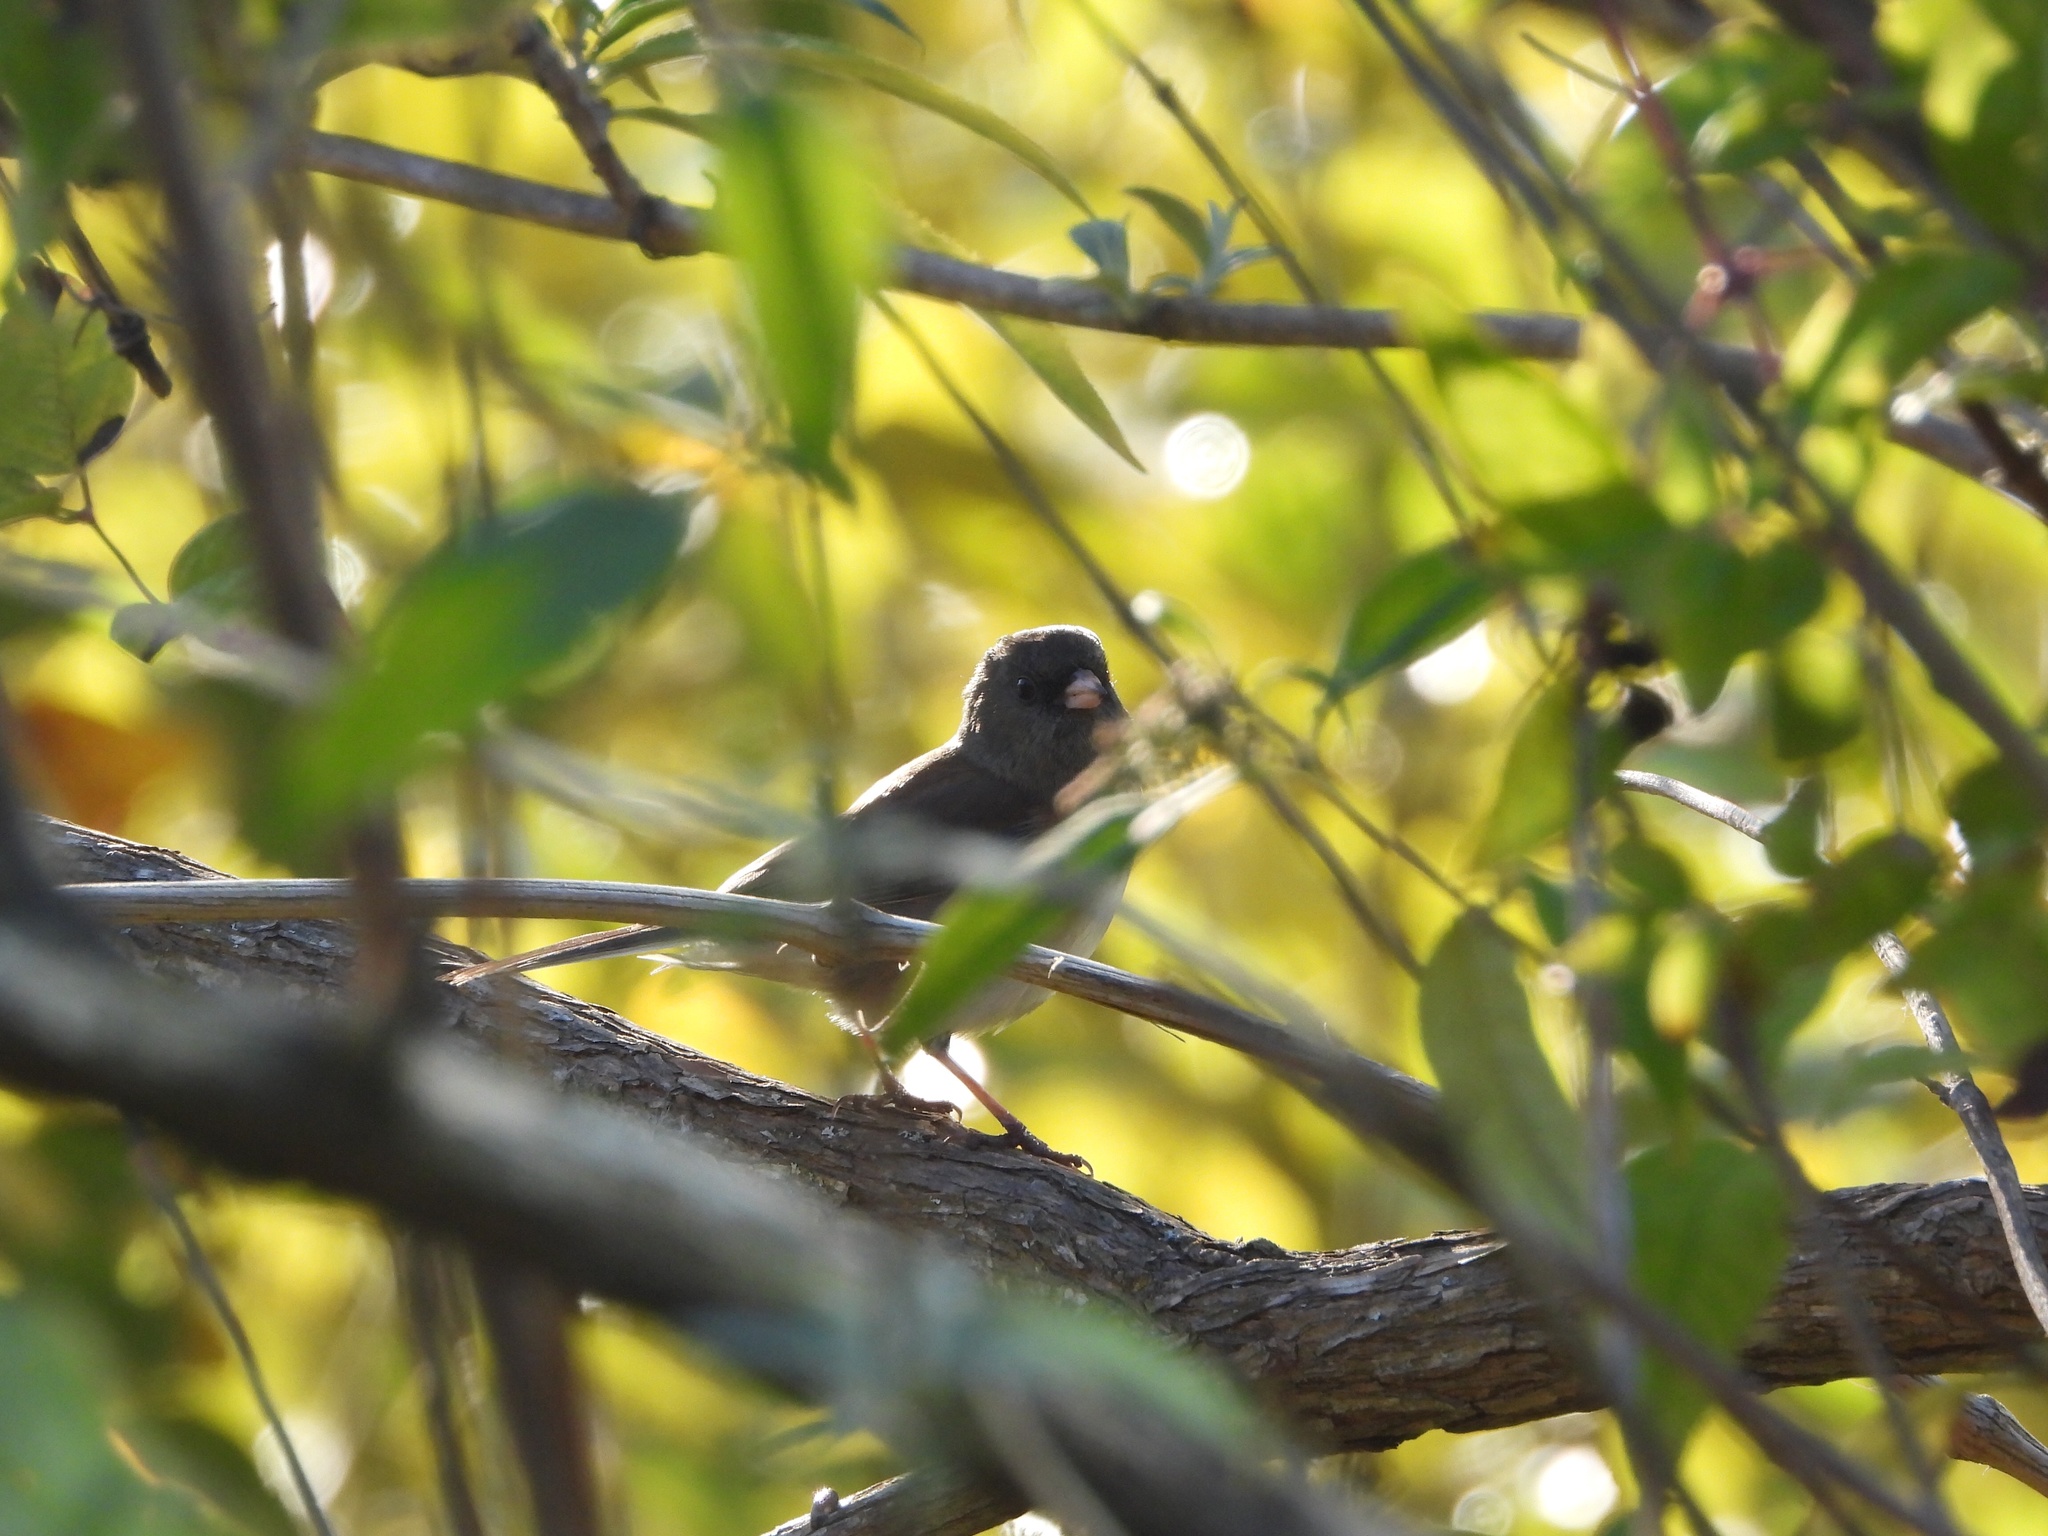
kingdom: Animalia
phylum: Chordata
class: Aves
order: Passeriformes
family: Passerellidae
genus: Junco
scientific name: Junco hyemalis
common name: Dark-eyed junco
